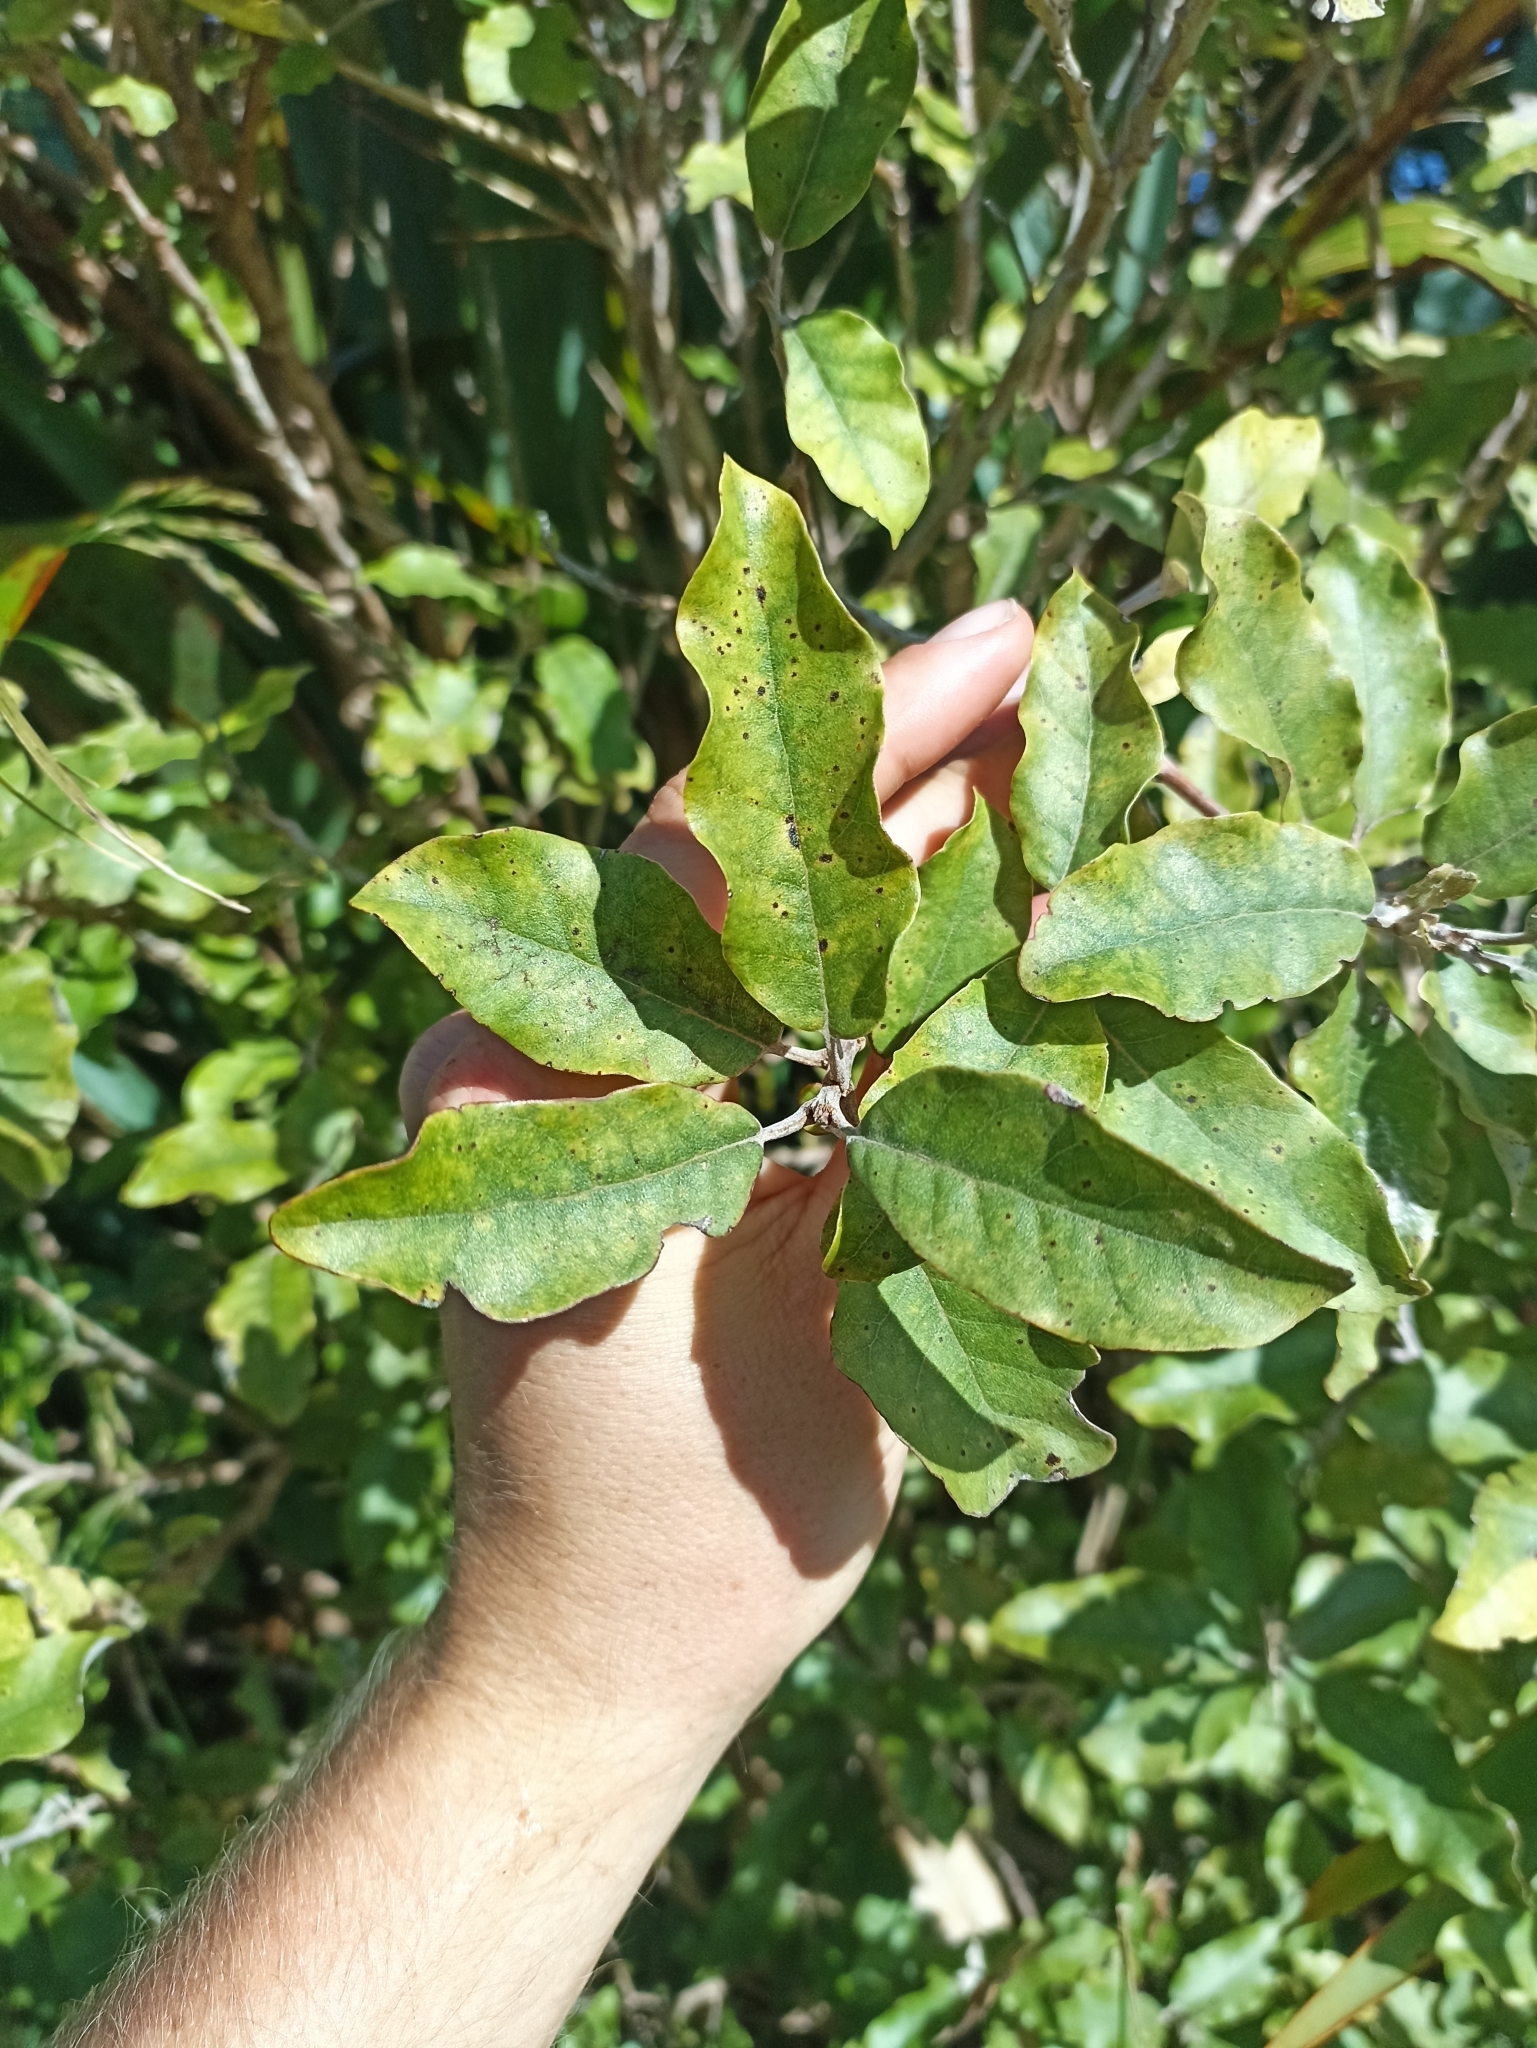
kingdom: Plantae
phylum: Tracheophyta
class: Magnoliopsida
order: Asterales
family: Asteraceae
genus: Olearia
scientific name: Olearia albida
